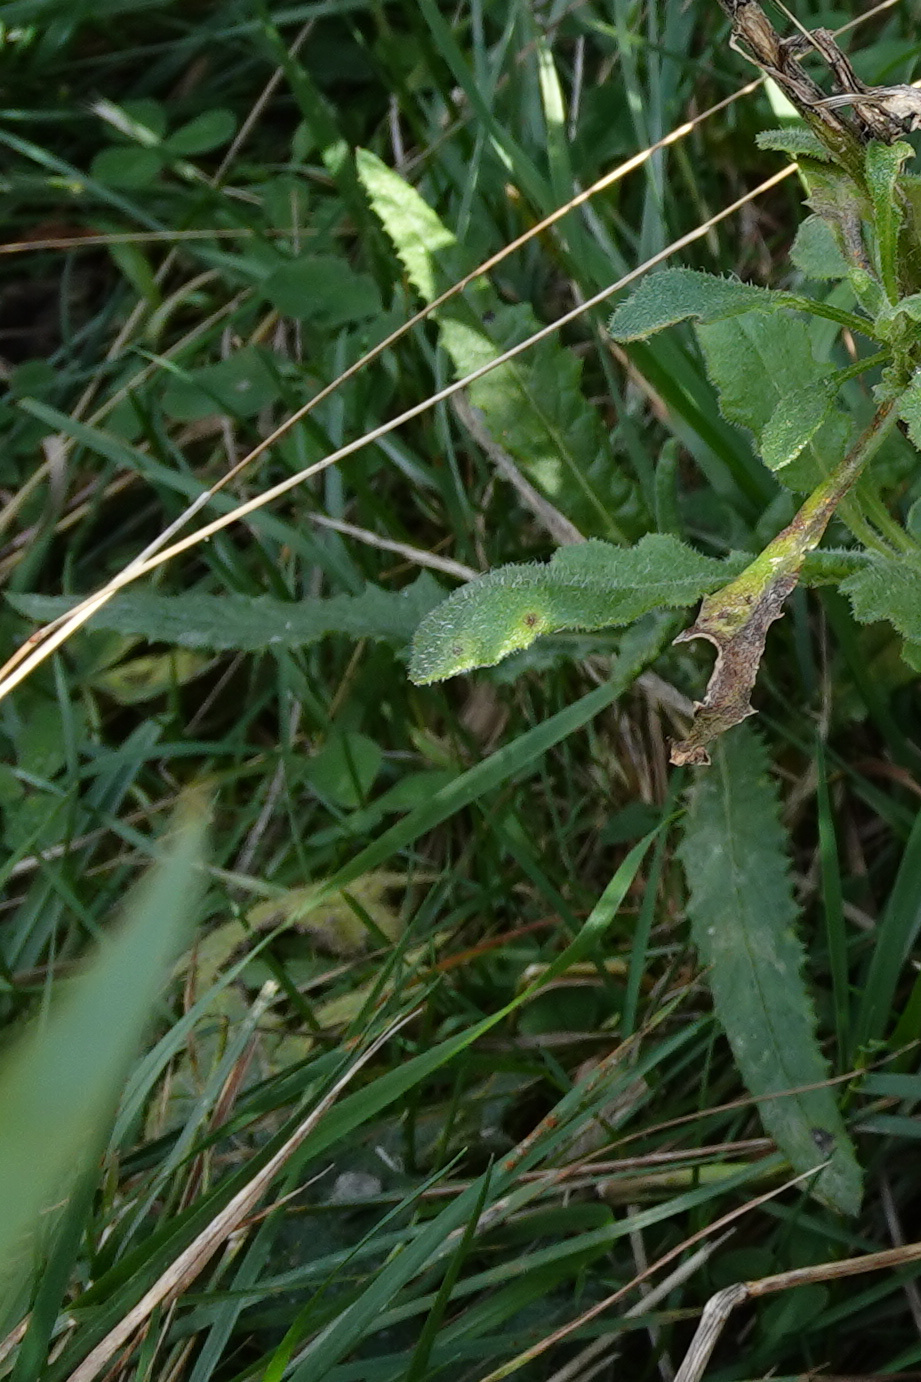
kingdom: Plantae
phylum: Tracheophyta
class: Magnoliopsida
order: Asterales
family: Asteraceae
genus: Senecio
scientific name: Senecio minimus
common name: Toothed fireweed
